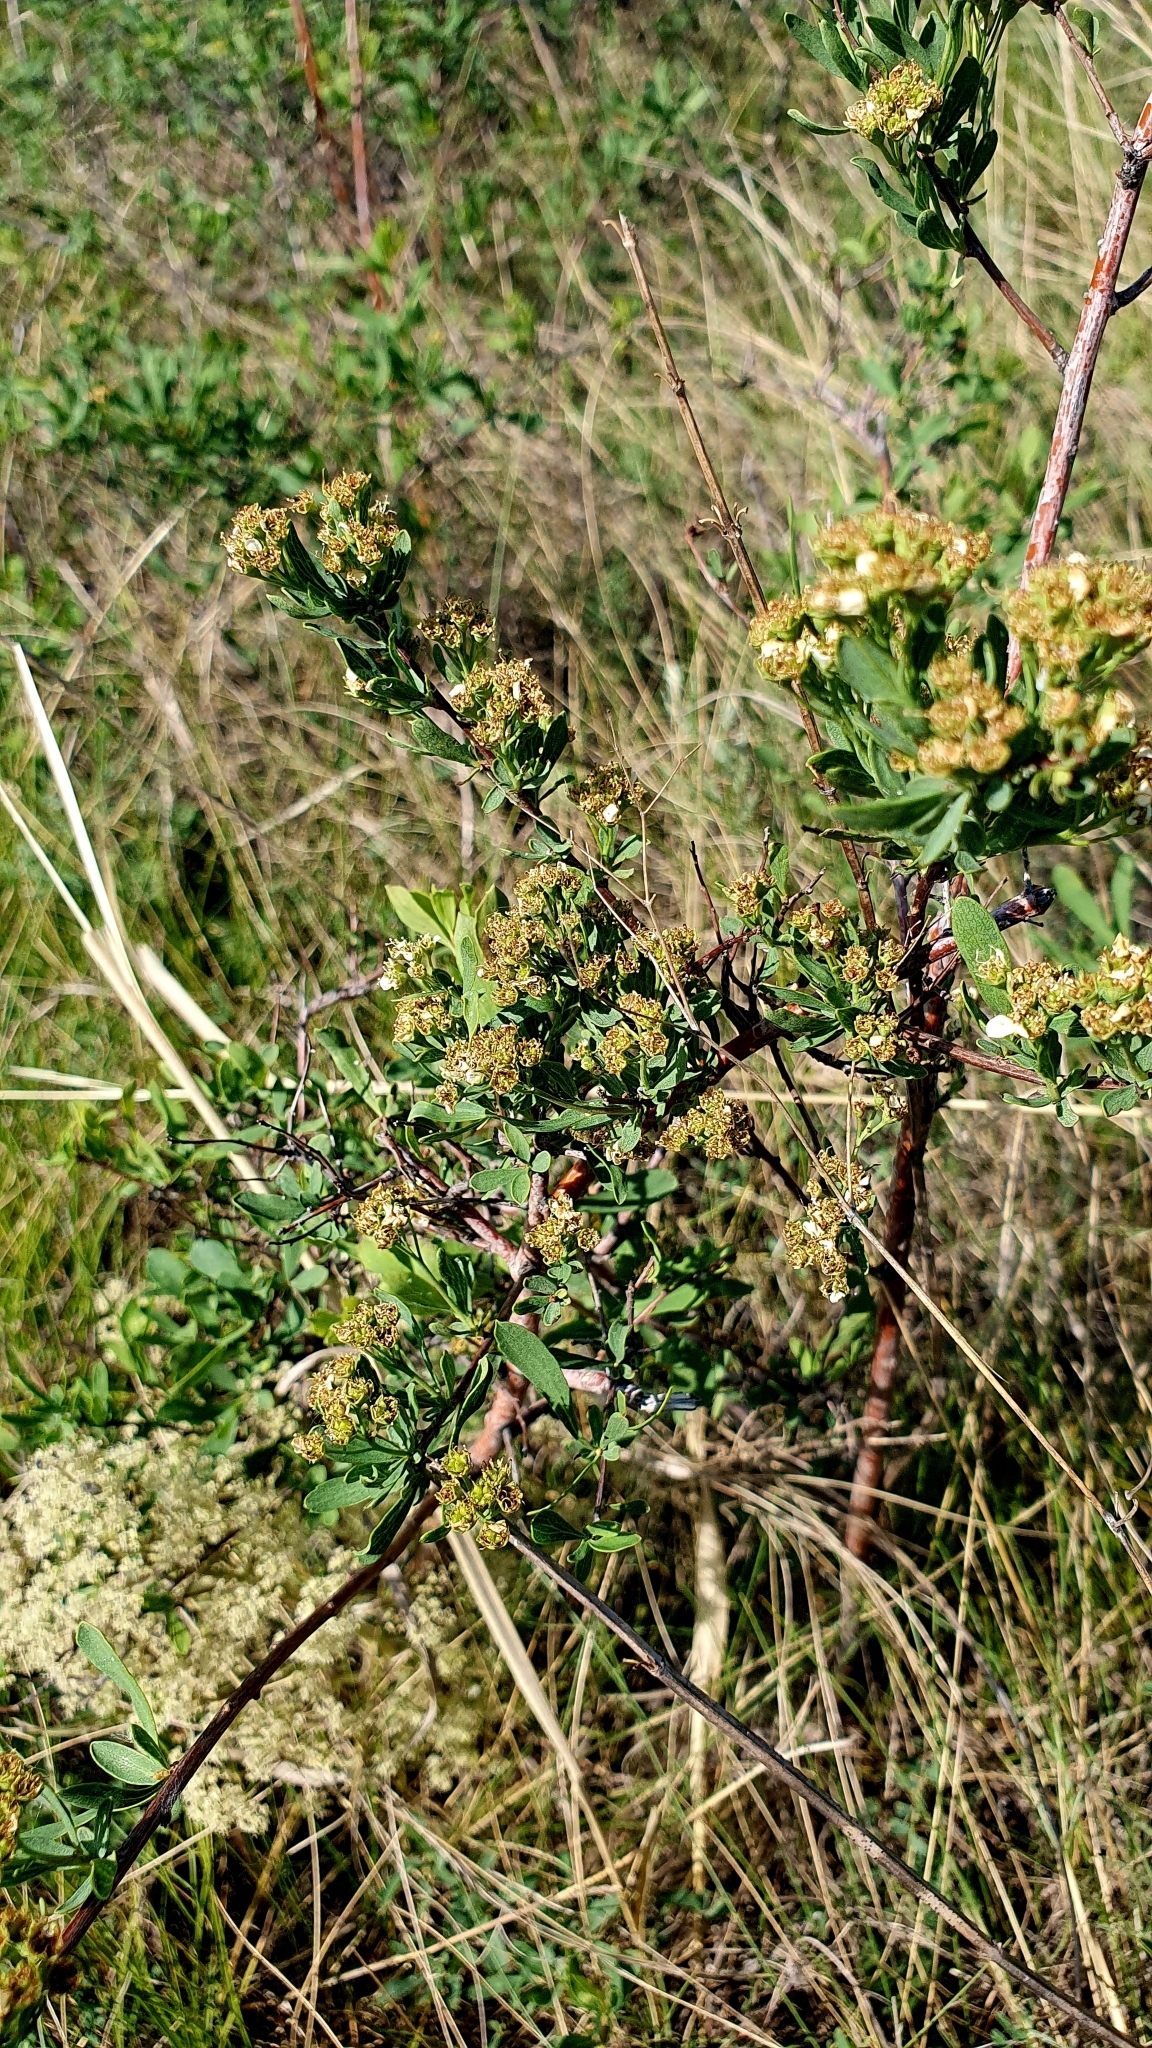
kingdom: Plantae
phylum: Tracheophyta
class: Magnoliopsida
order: Rosales
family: Rosaceae
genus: Spiraea
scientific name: Spiraea crenata
